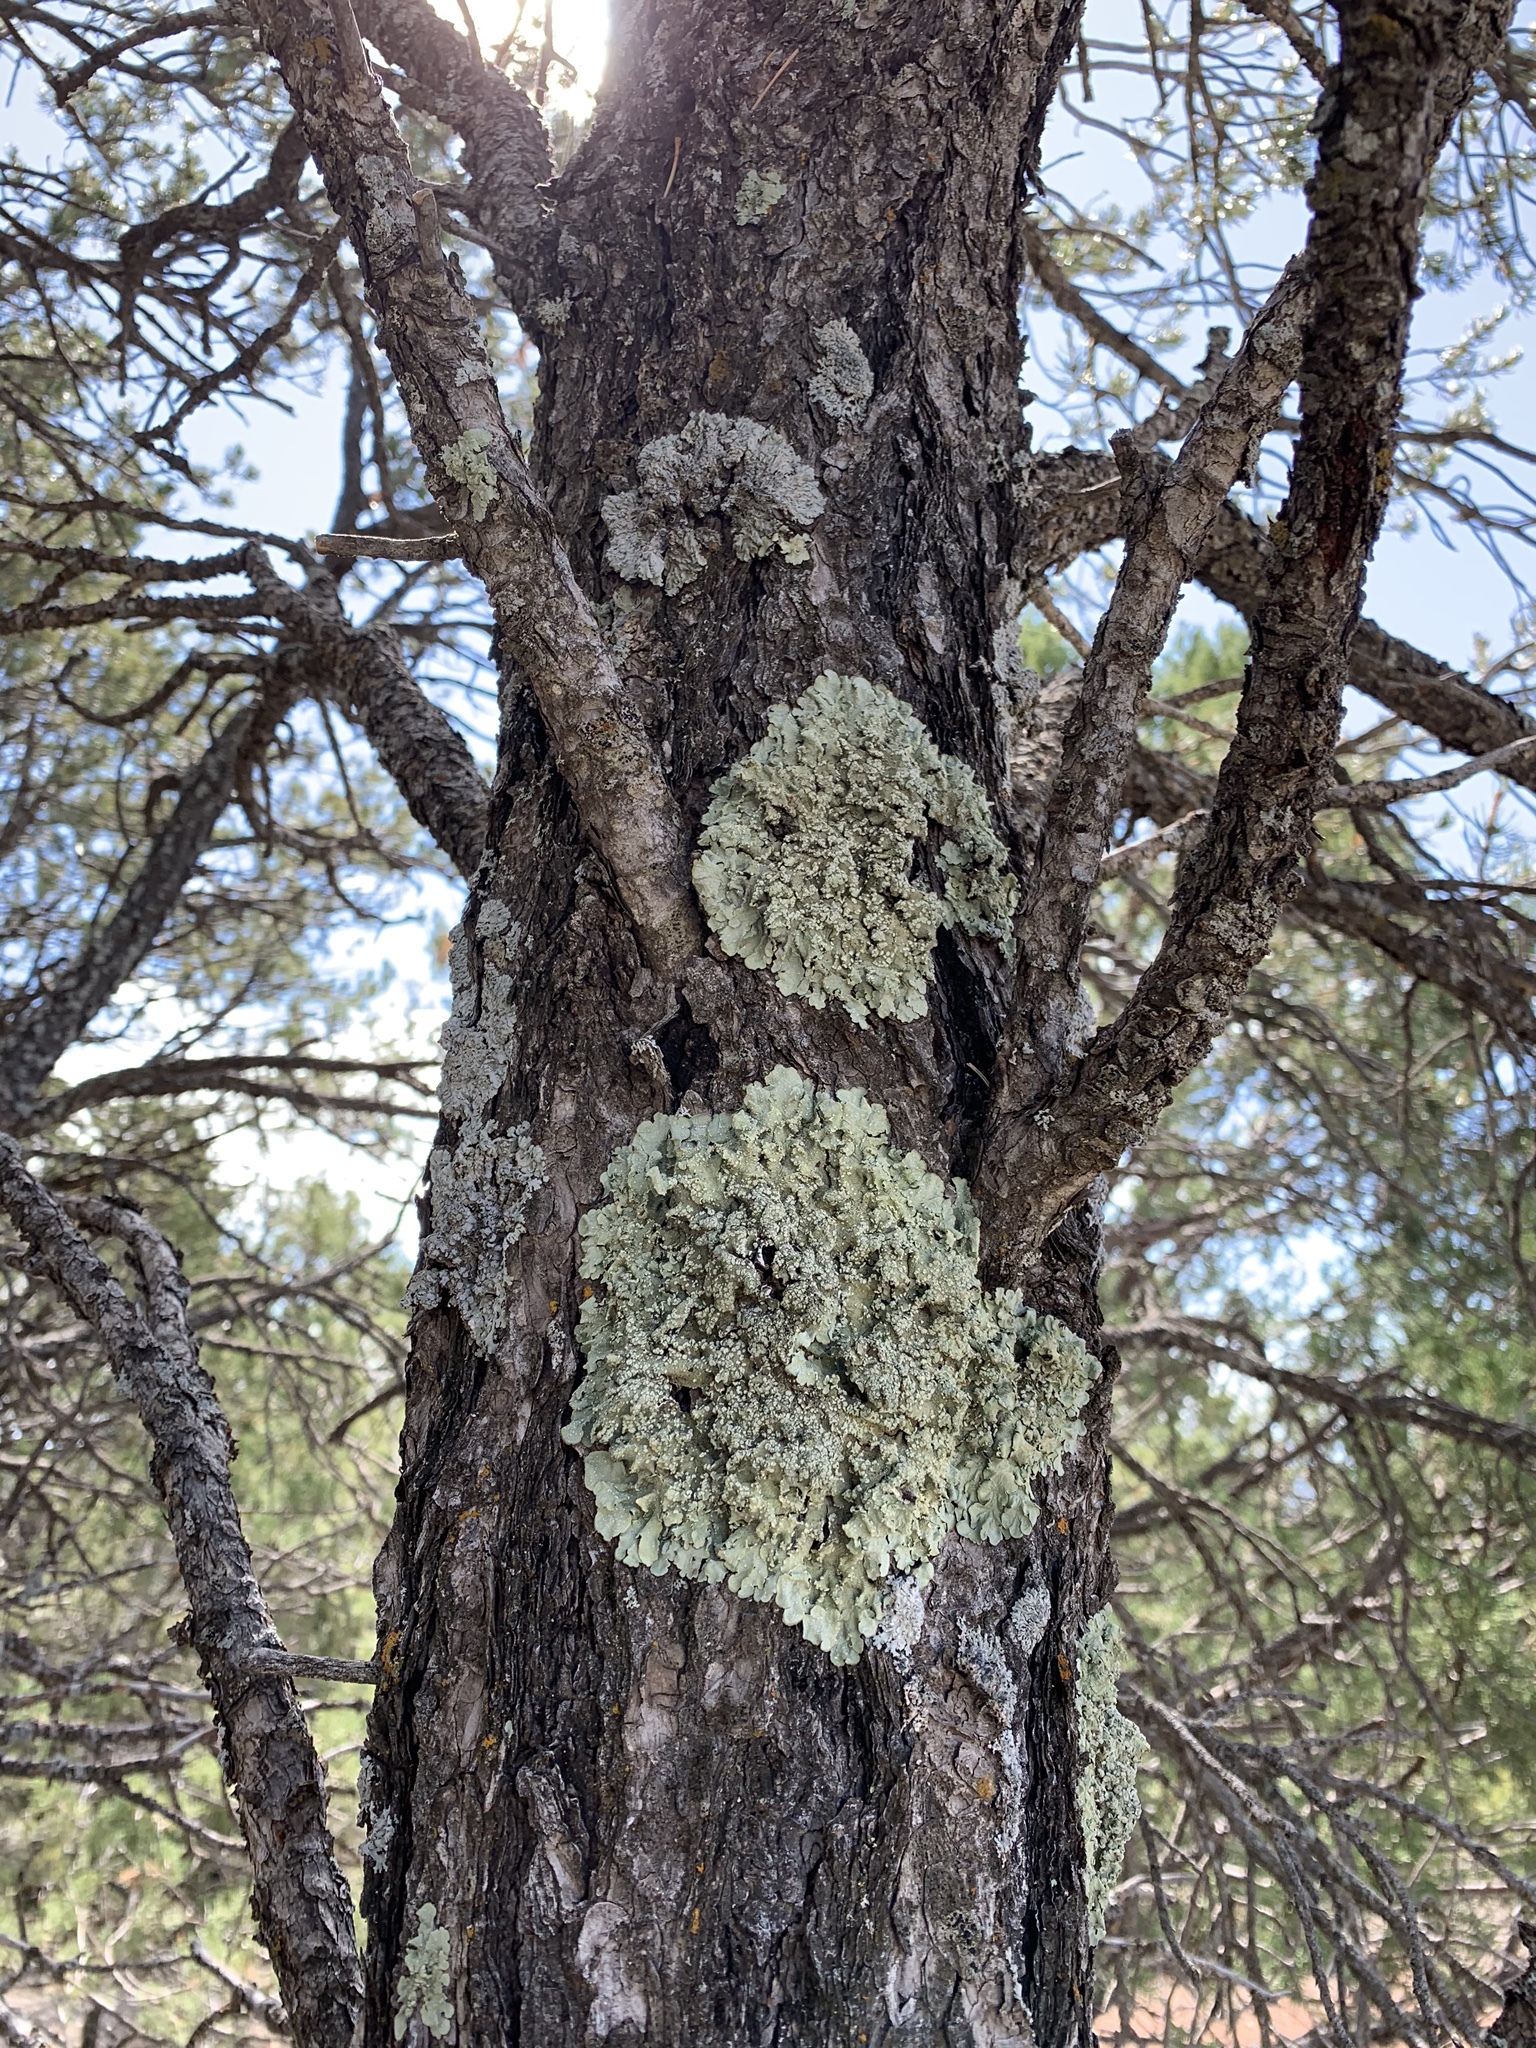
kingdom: Fungi
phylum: Ascomycota
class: Lecanoromycetes
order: Lecanorales
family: Parmeliaceae
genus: Flavopunctelia
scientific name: Flavopunctelia flaventior
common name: Speckled greenshield
